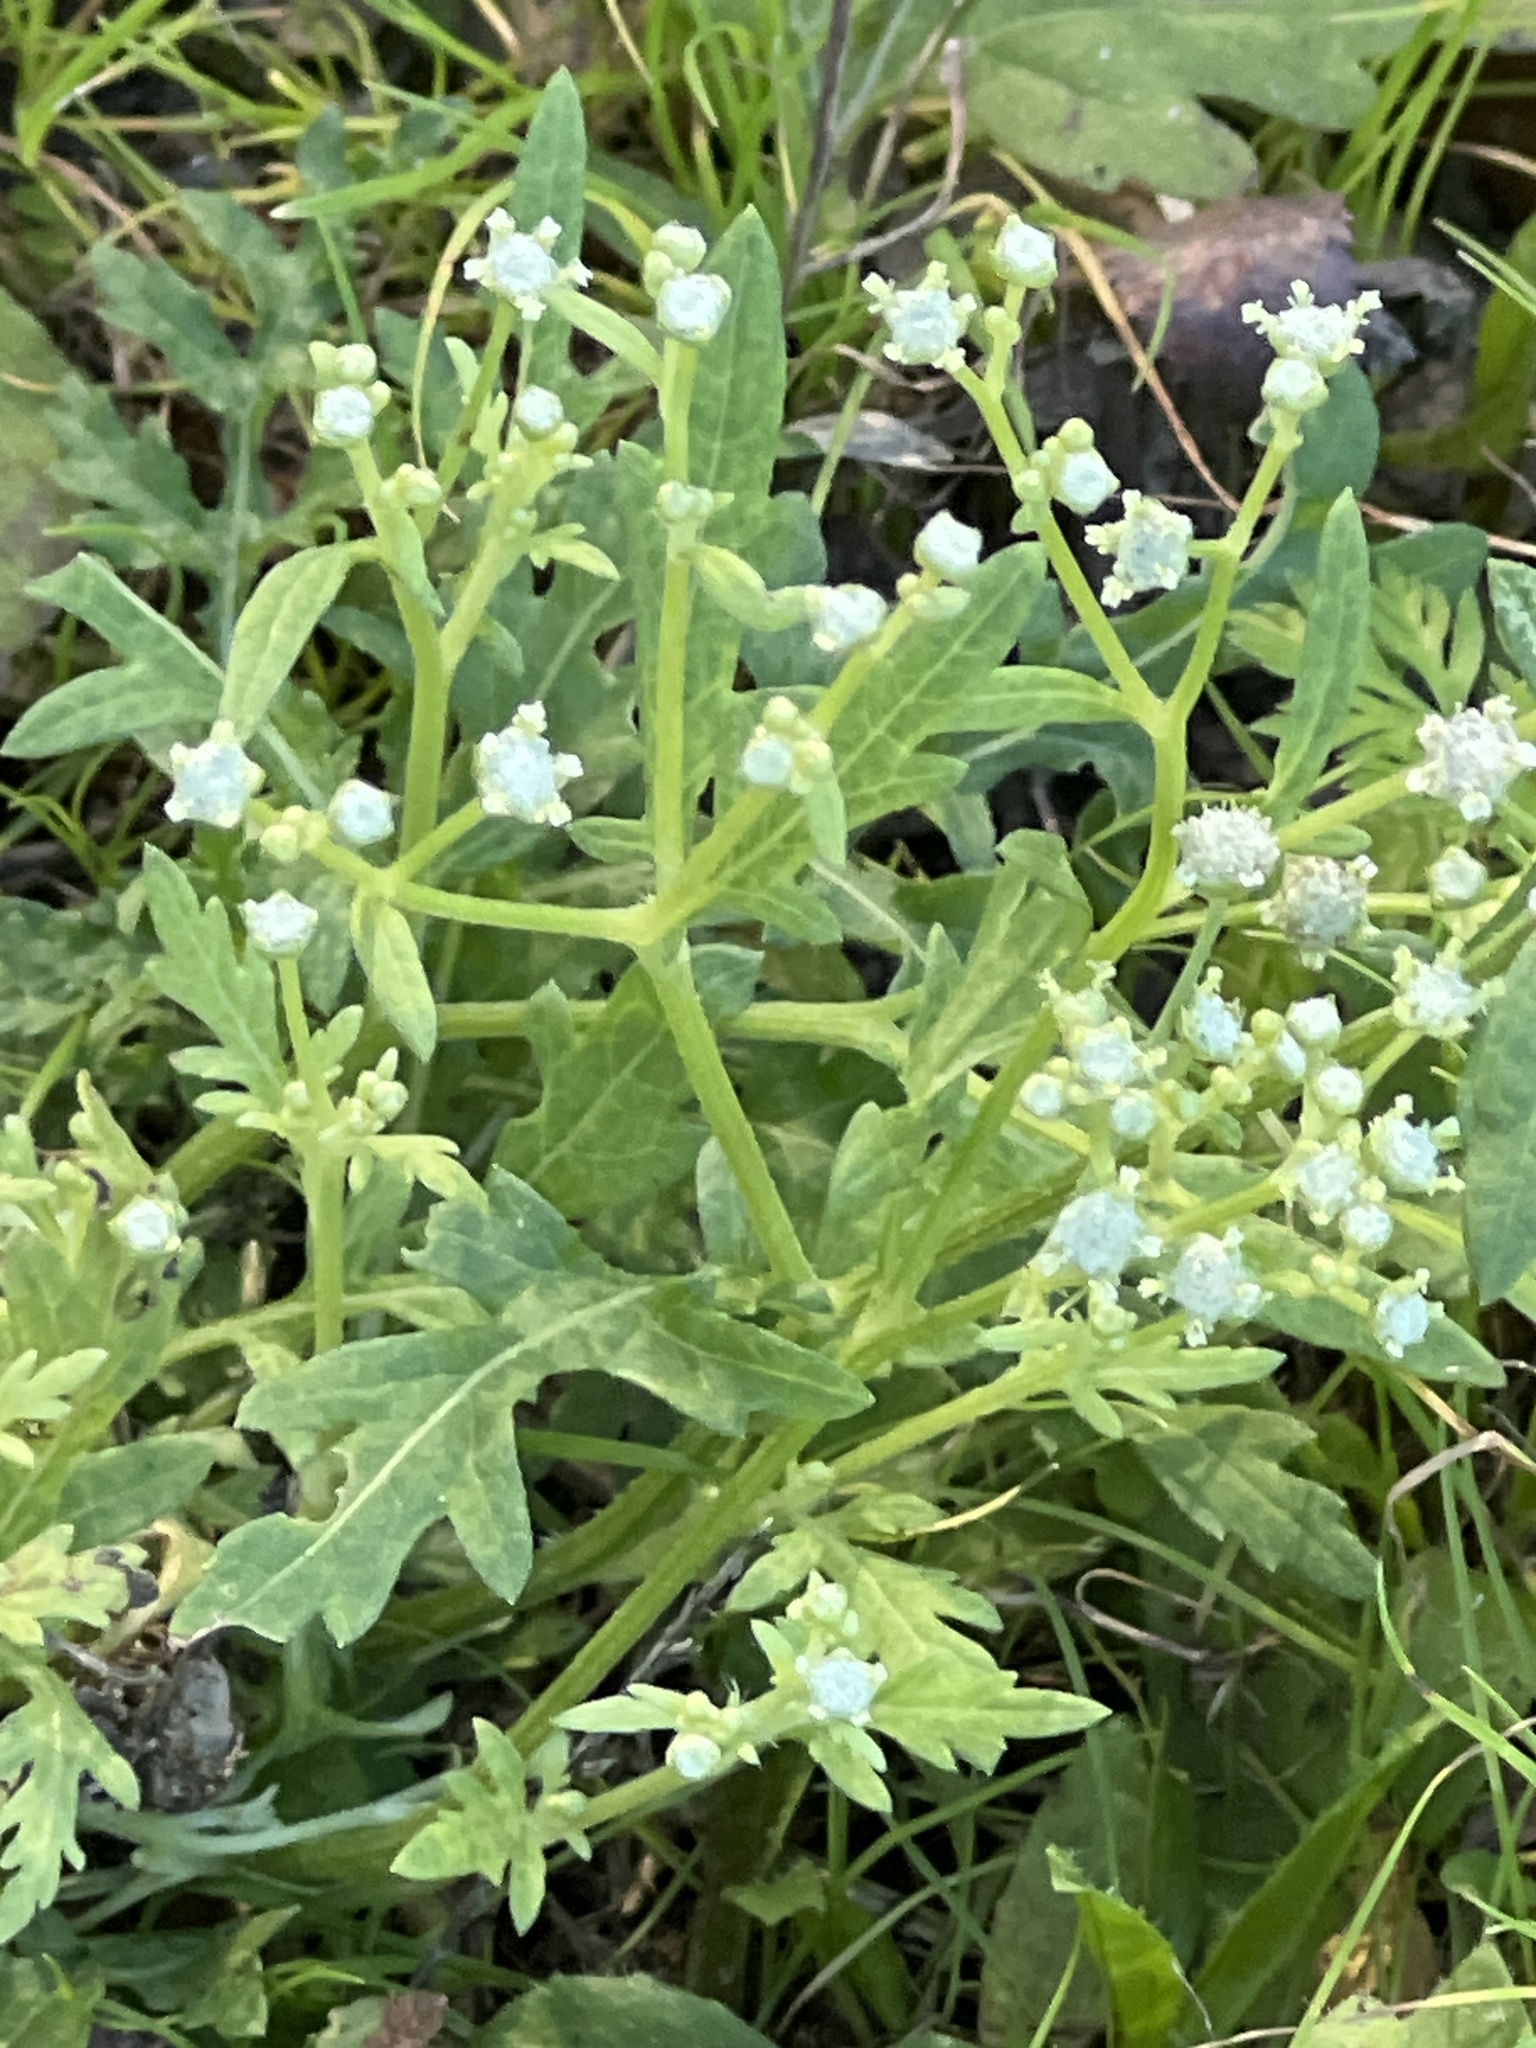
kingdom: Plantae
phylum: Tracheophyta
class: Magnoliopsida
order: Asterales
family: Asteraceae
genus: Parthenium
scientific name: Parthenium hysterophorus
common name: Santa maria feverfew
